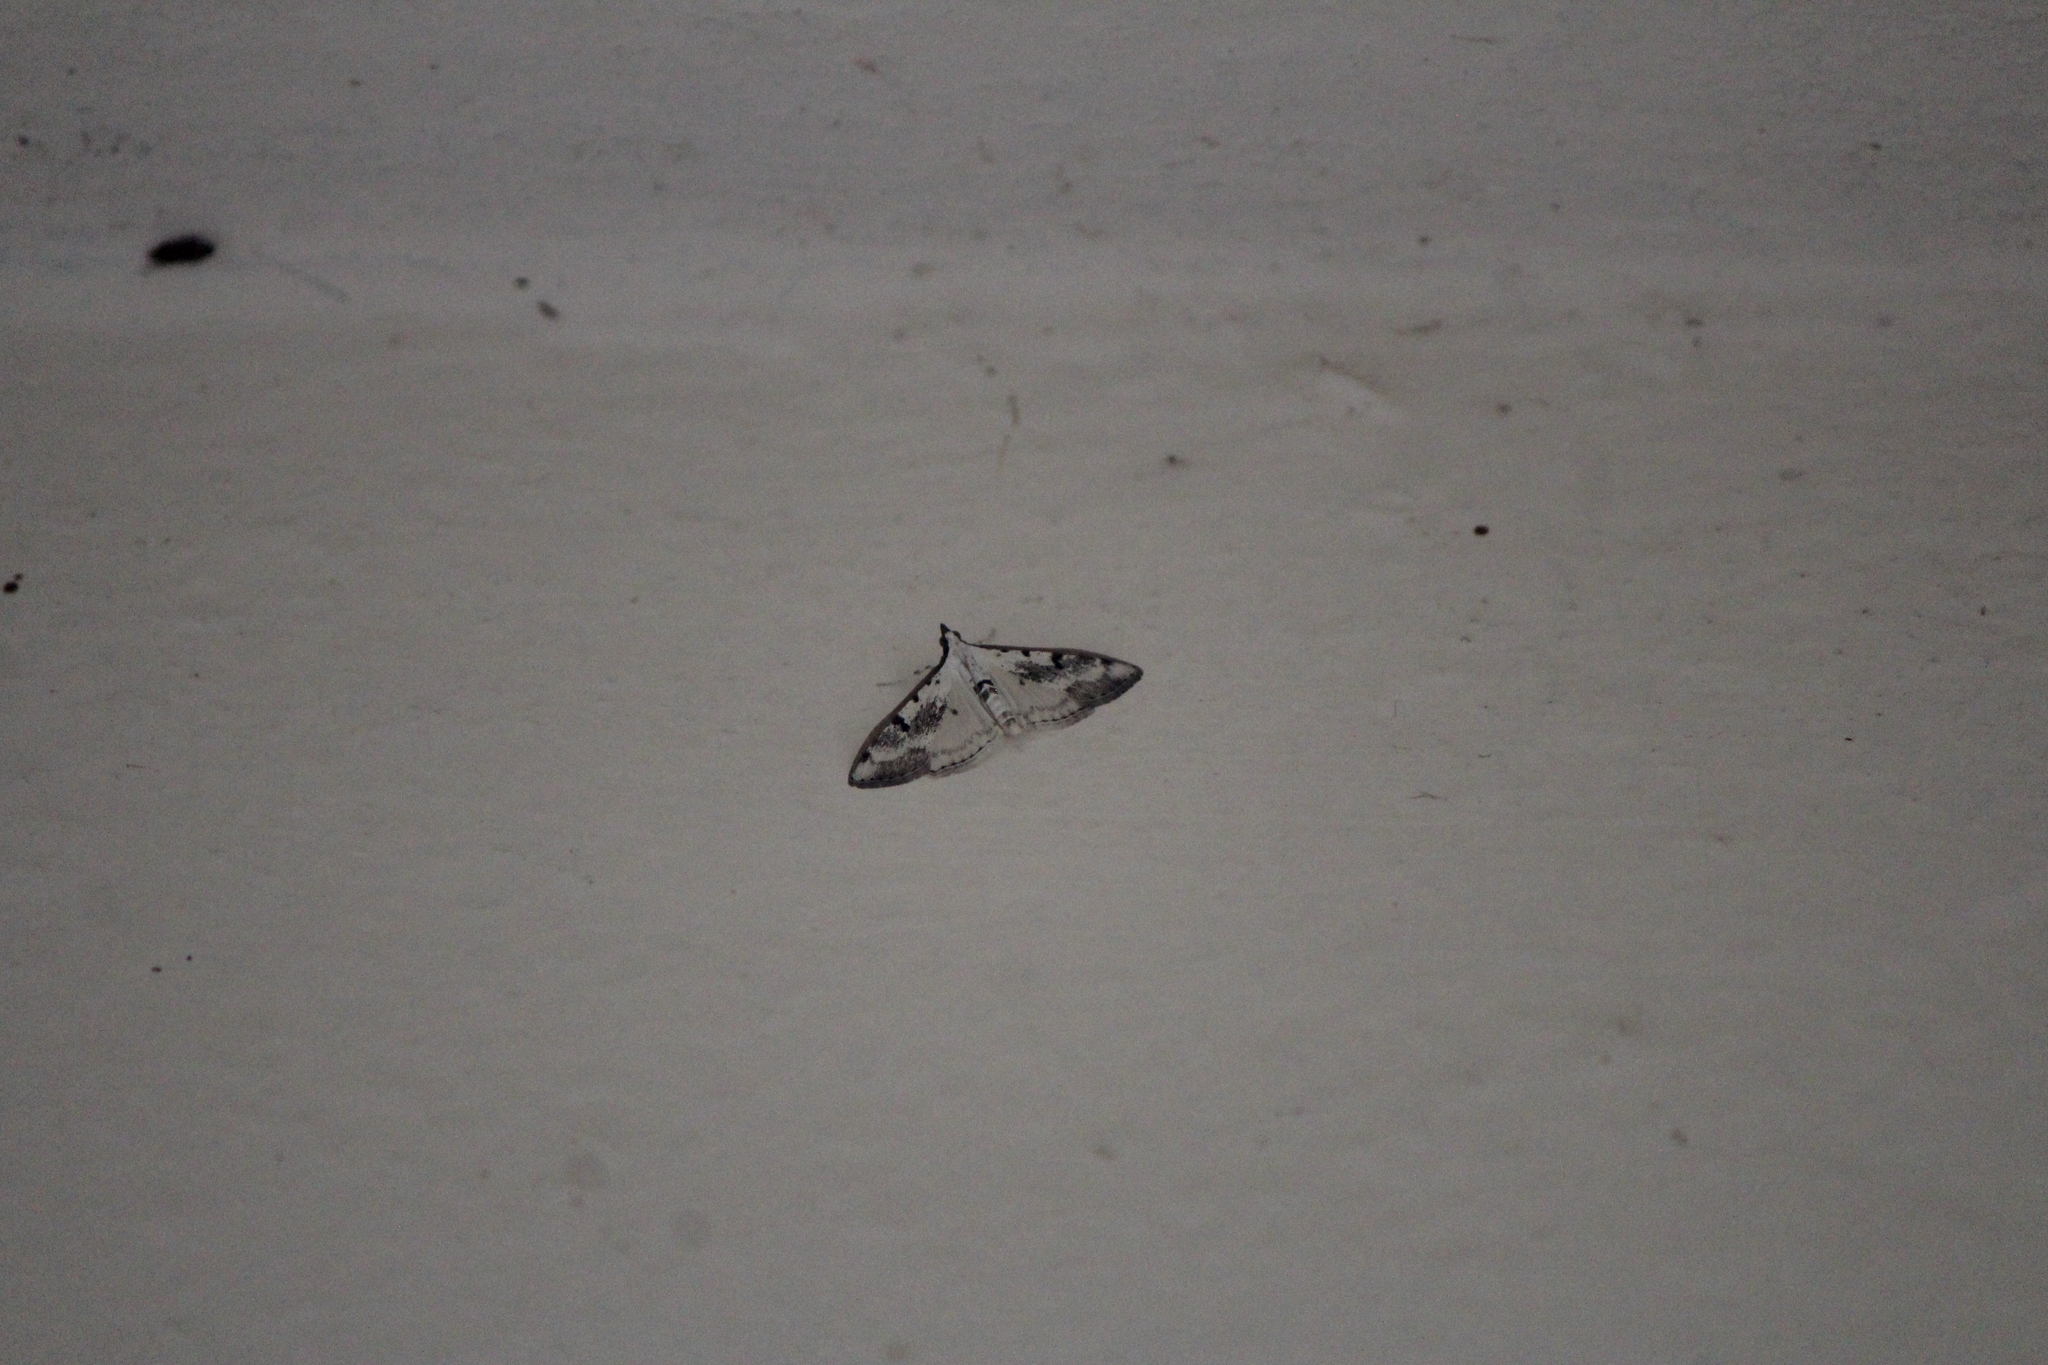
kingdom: Animalia
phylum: Arthropoda
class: Insecta
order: Lepidoptera
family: Crambidae
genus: Palpita
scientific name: Palpita gracilalis
